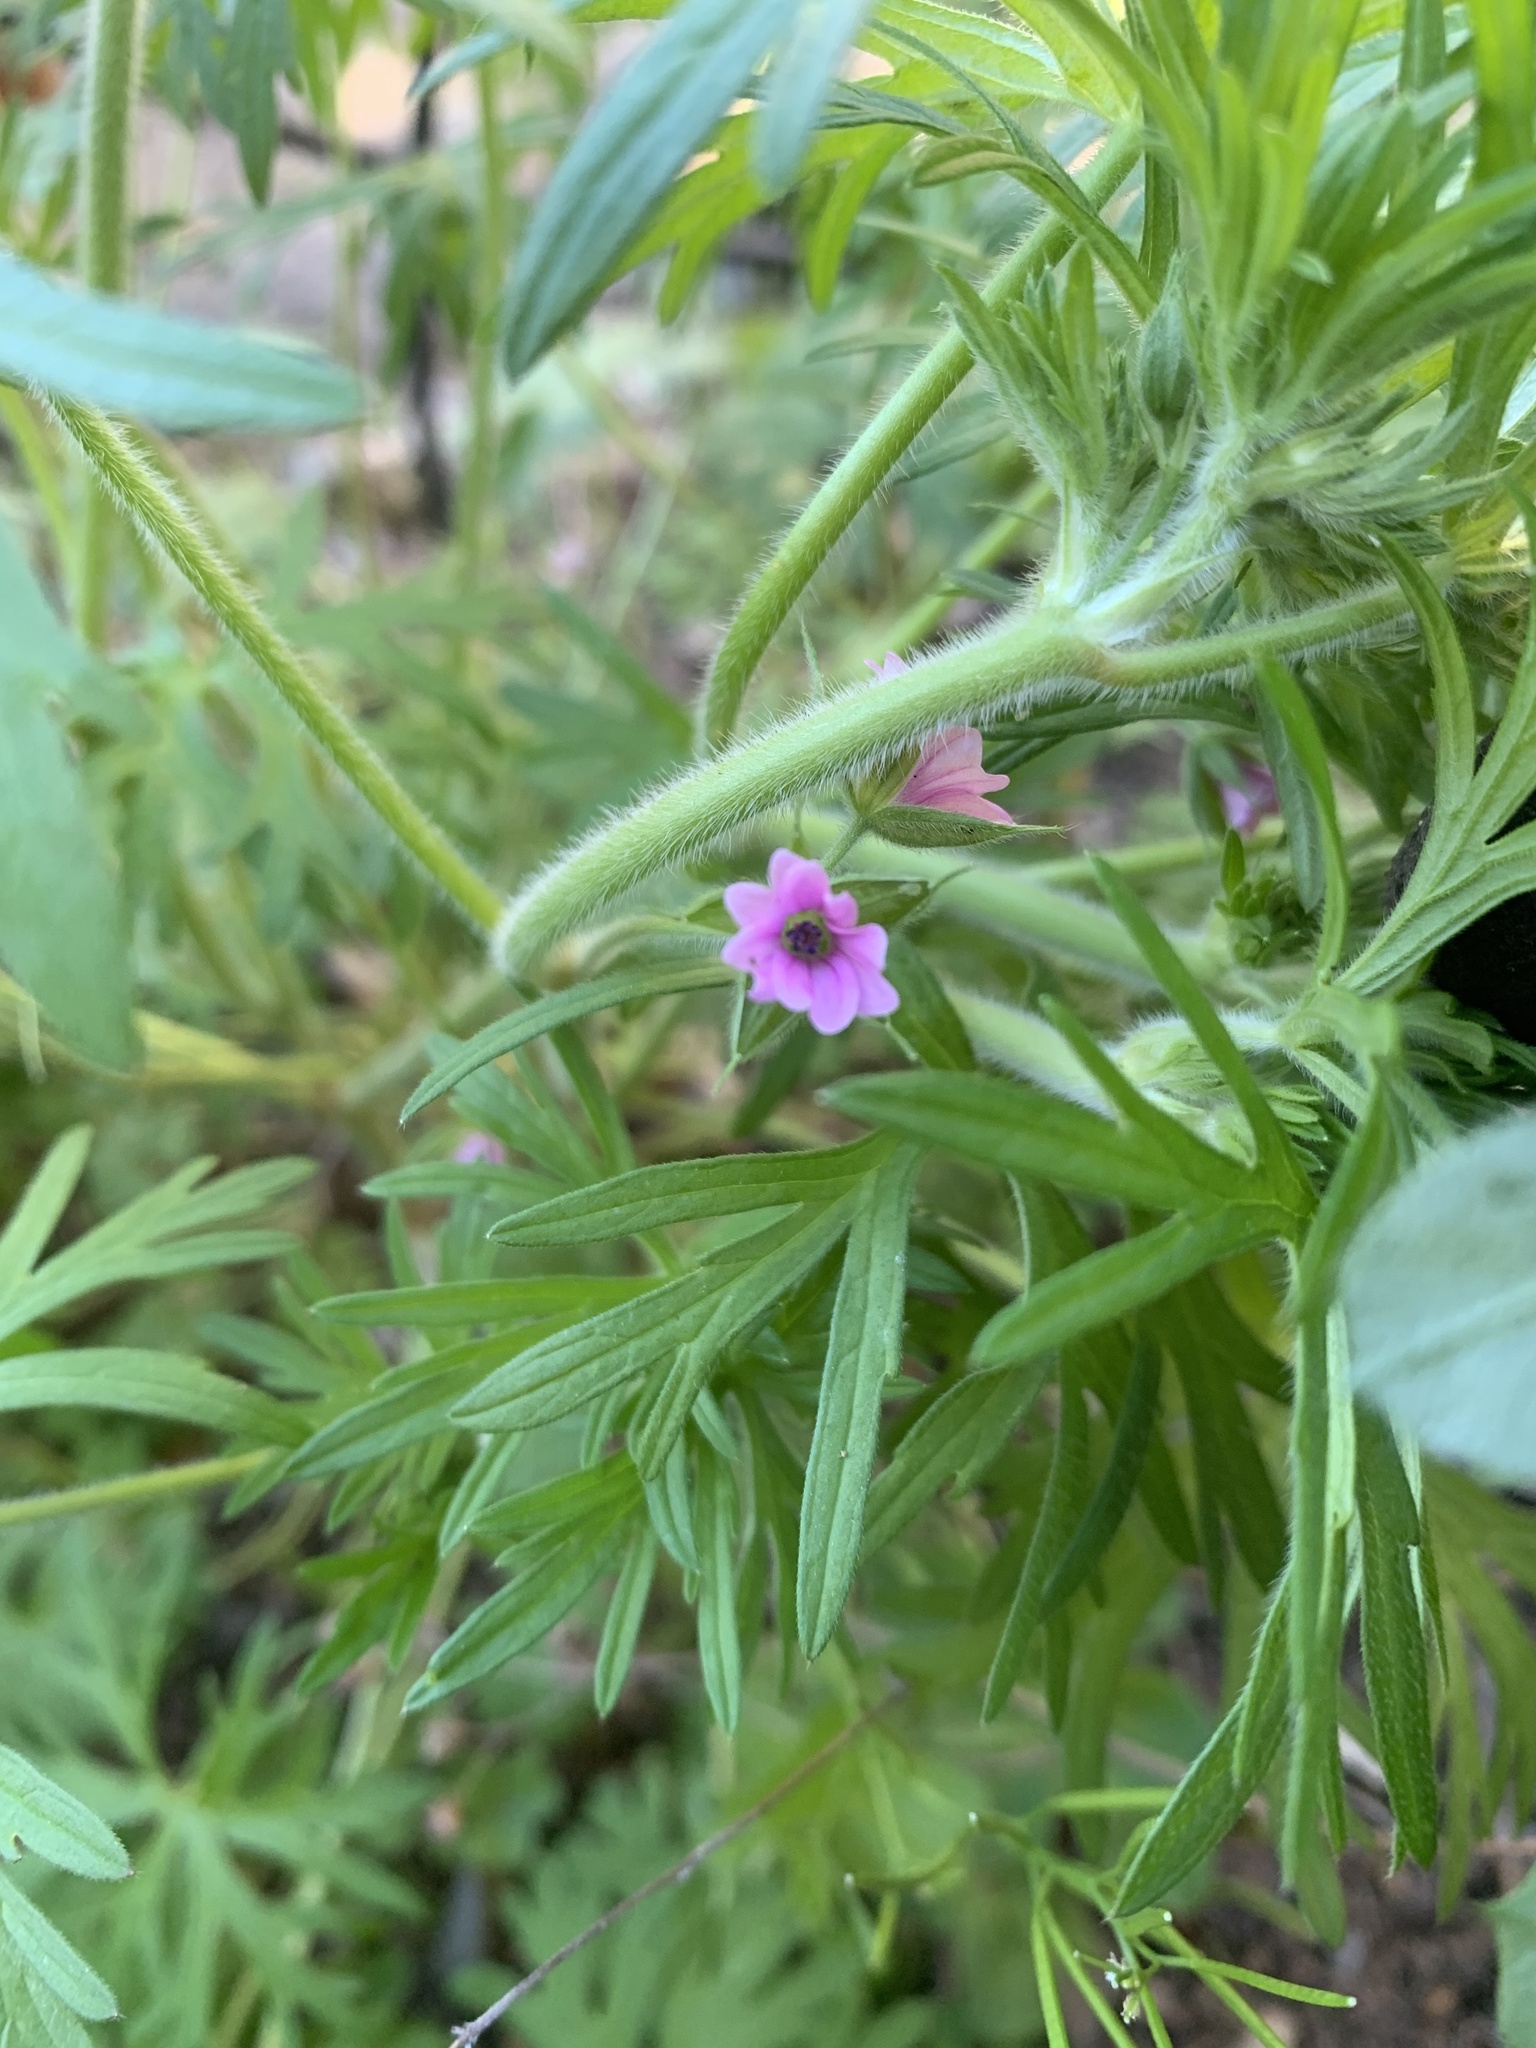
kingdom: Plantae
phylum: Tracheophyta
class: Magnoliopsida
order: Geraniales
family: Geraniaceae
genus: Geranium
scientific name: Geranium dissectum
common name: Cut-leaved crane's-bill
